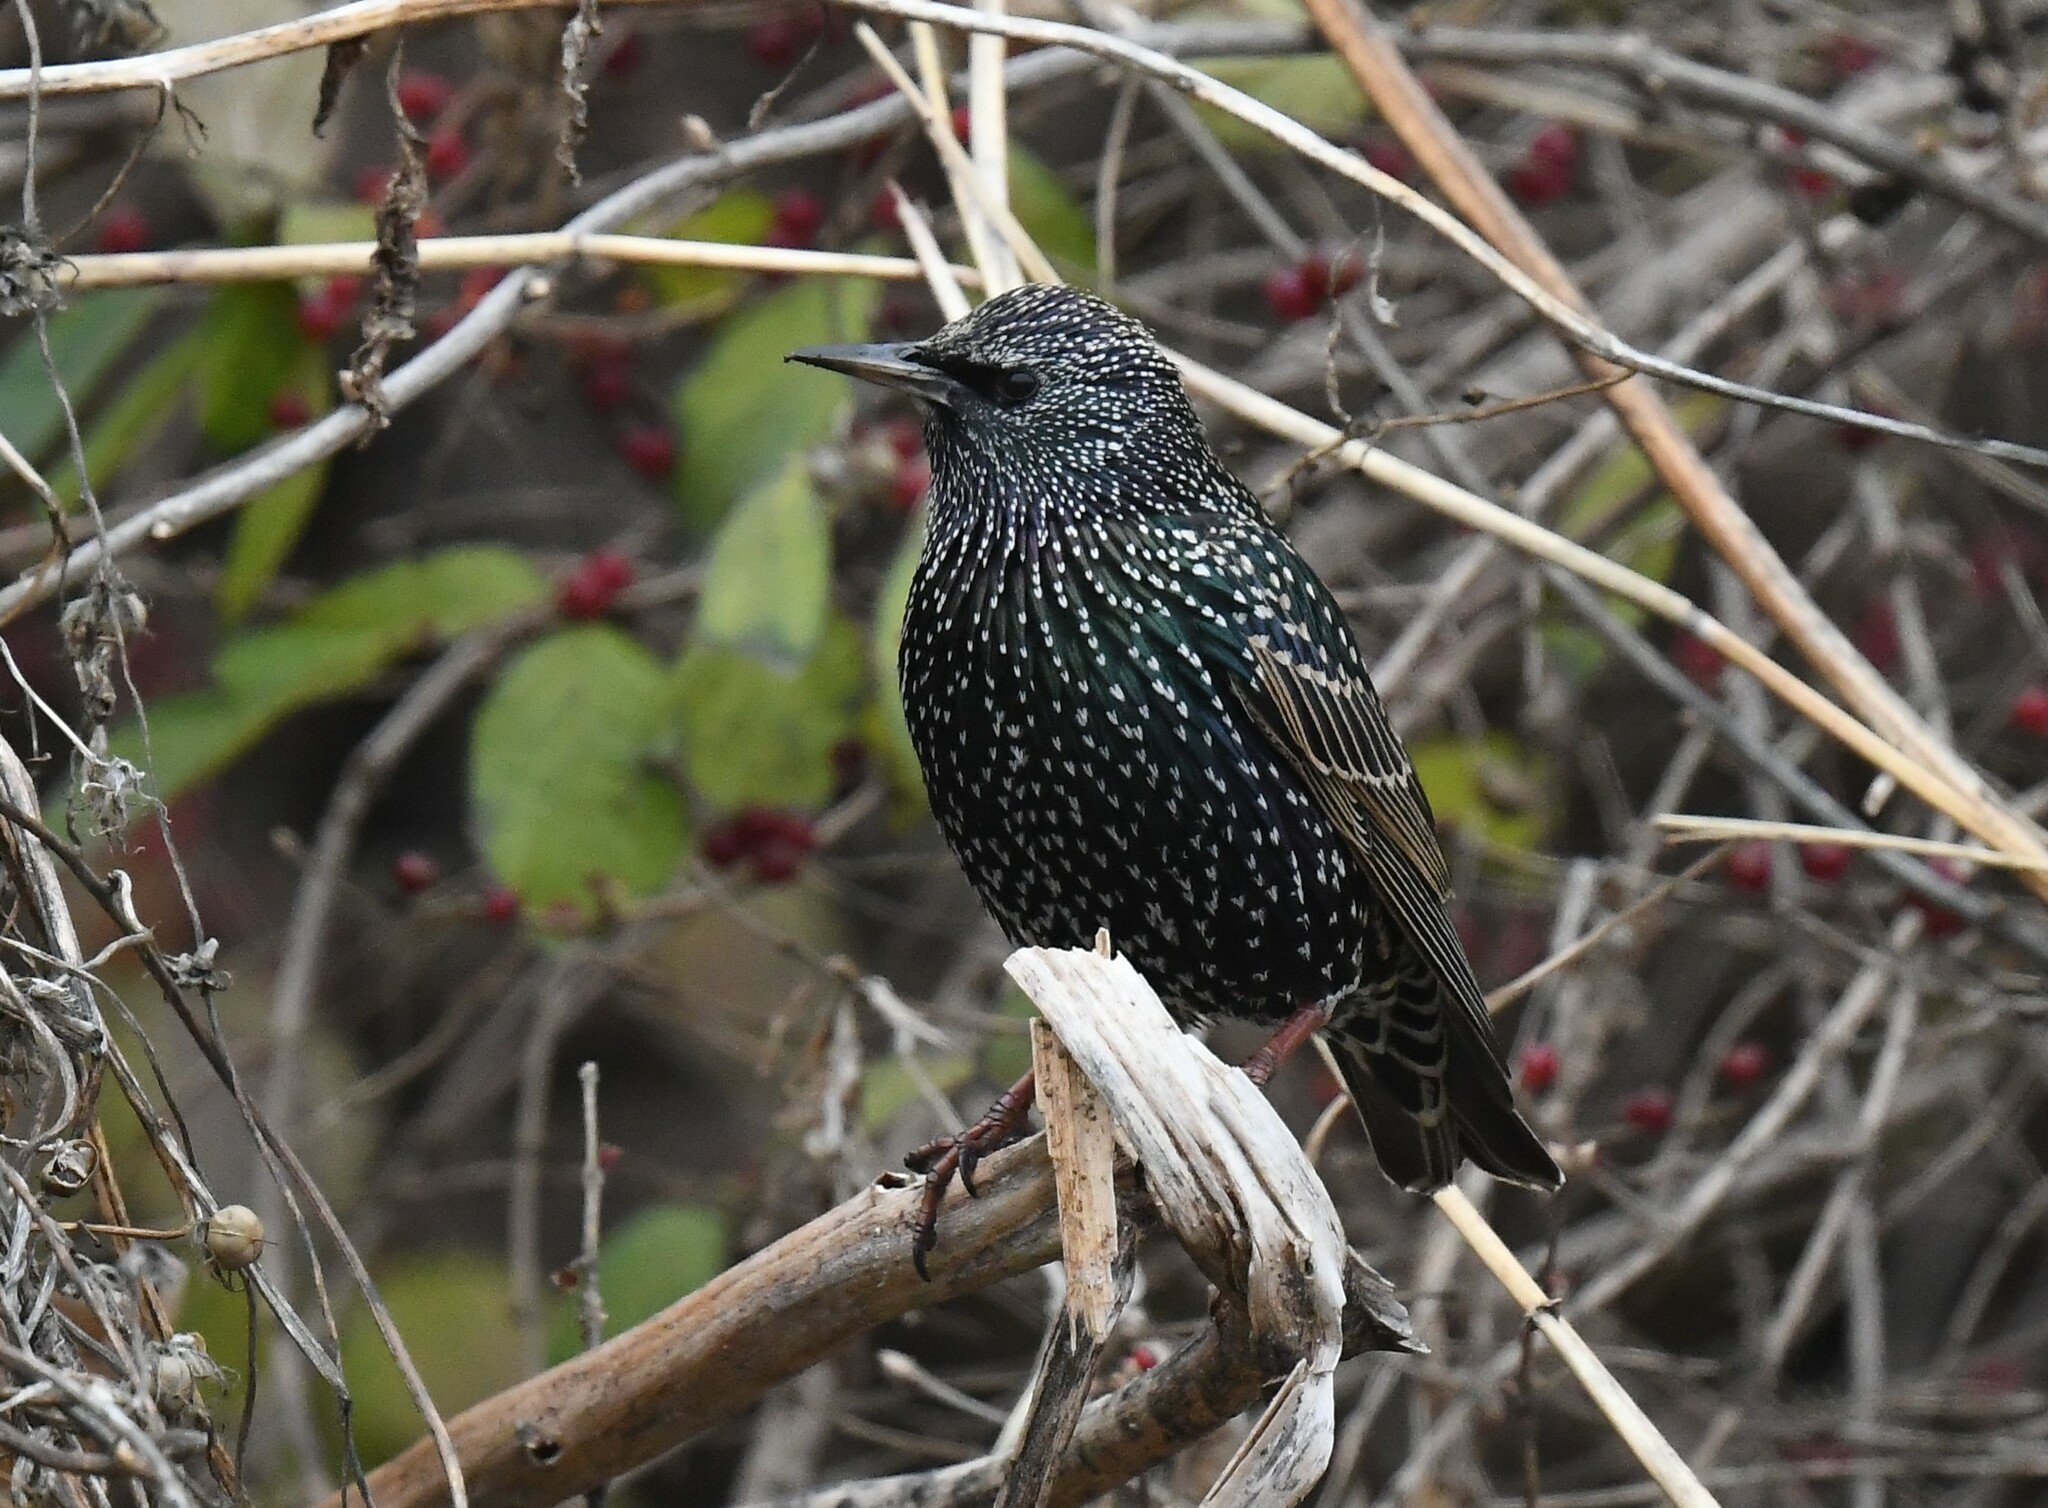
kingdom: Animalia
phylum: Chordata
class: Aves
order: Passeriformes
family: Sturnidae
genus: Sturnus
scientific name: Sturnus vulgaris
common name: Common starling
